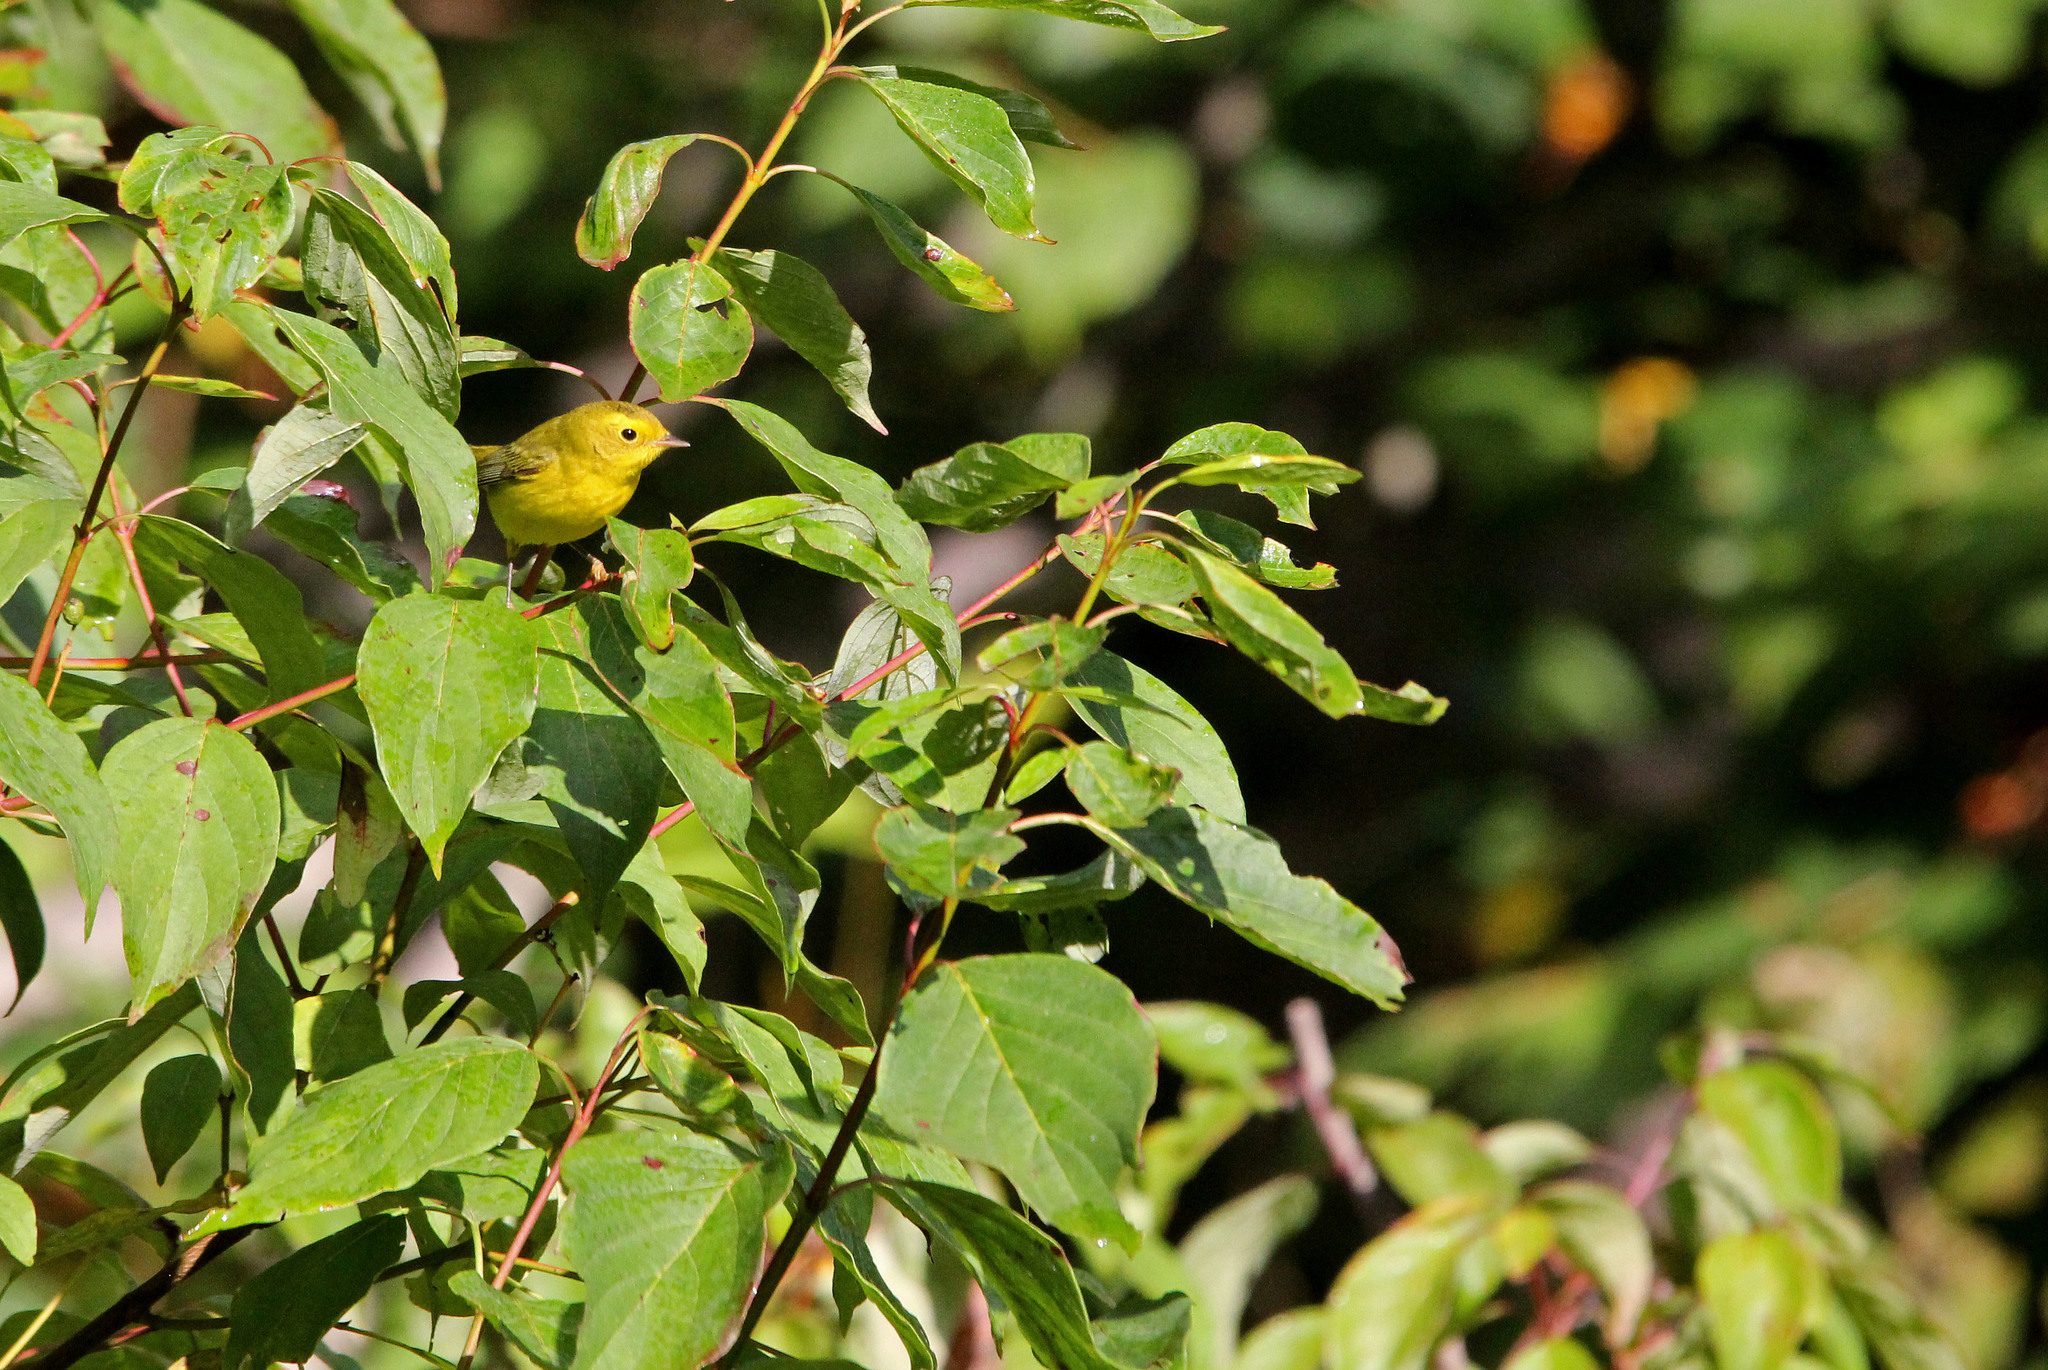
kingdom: Animalia
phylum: Chordata
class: Aves
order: Passeriformes
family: Parulidae
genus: Cardellina
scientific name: Cardellina pusilla
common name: Wilson's warbler
